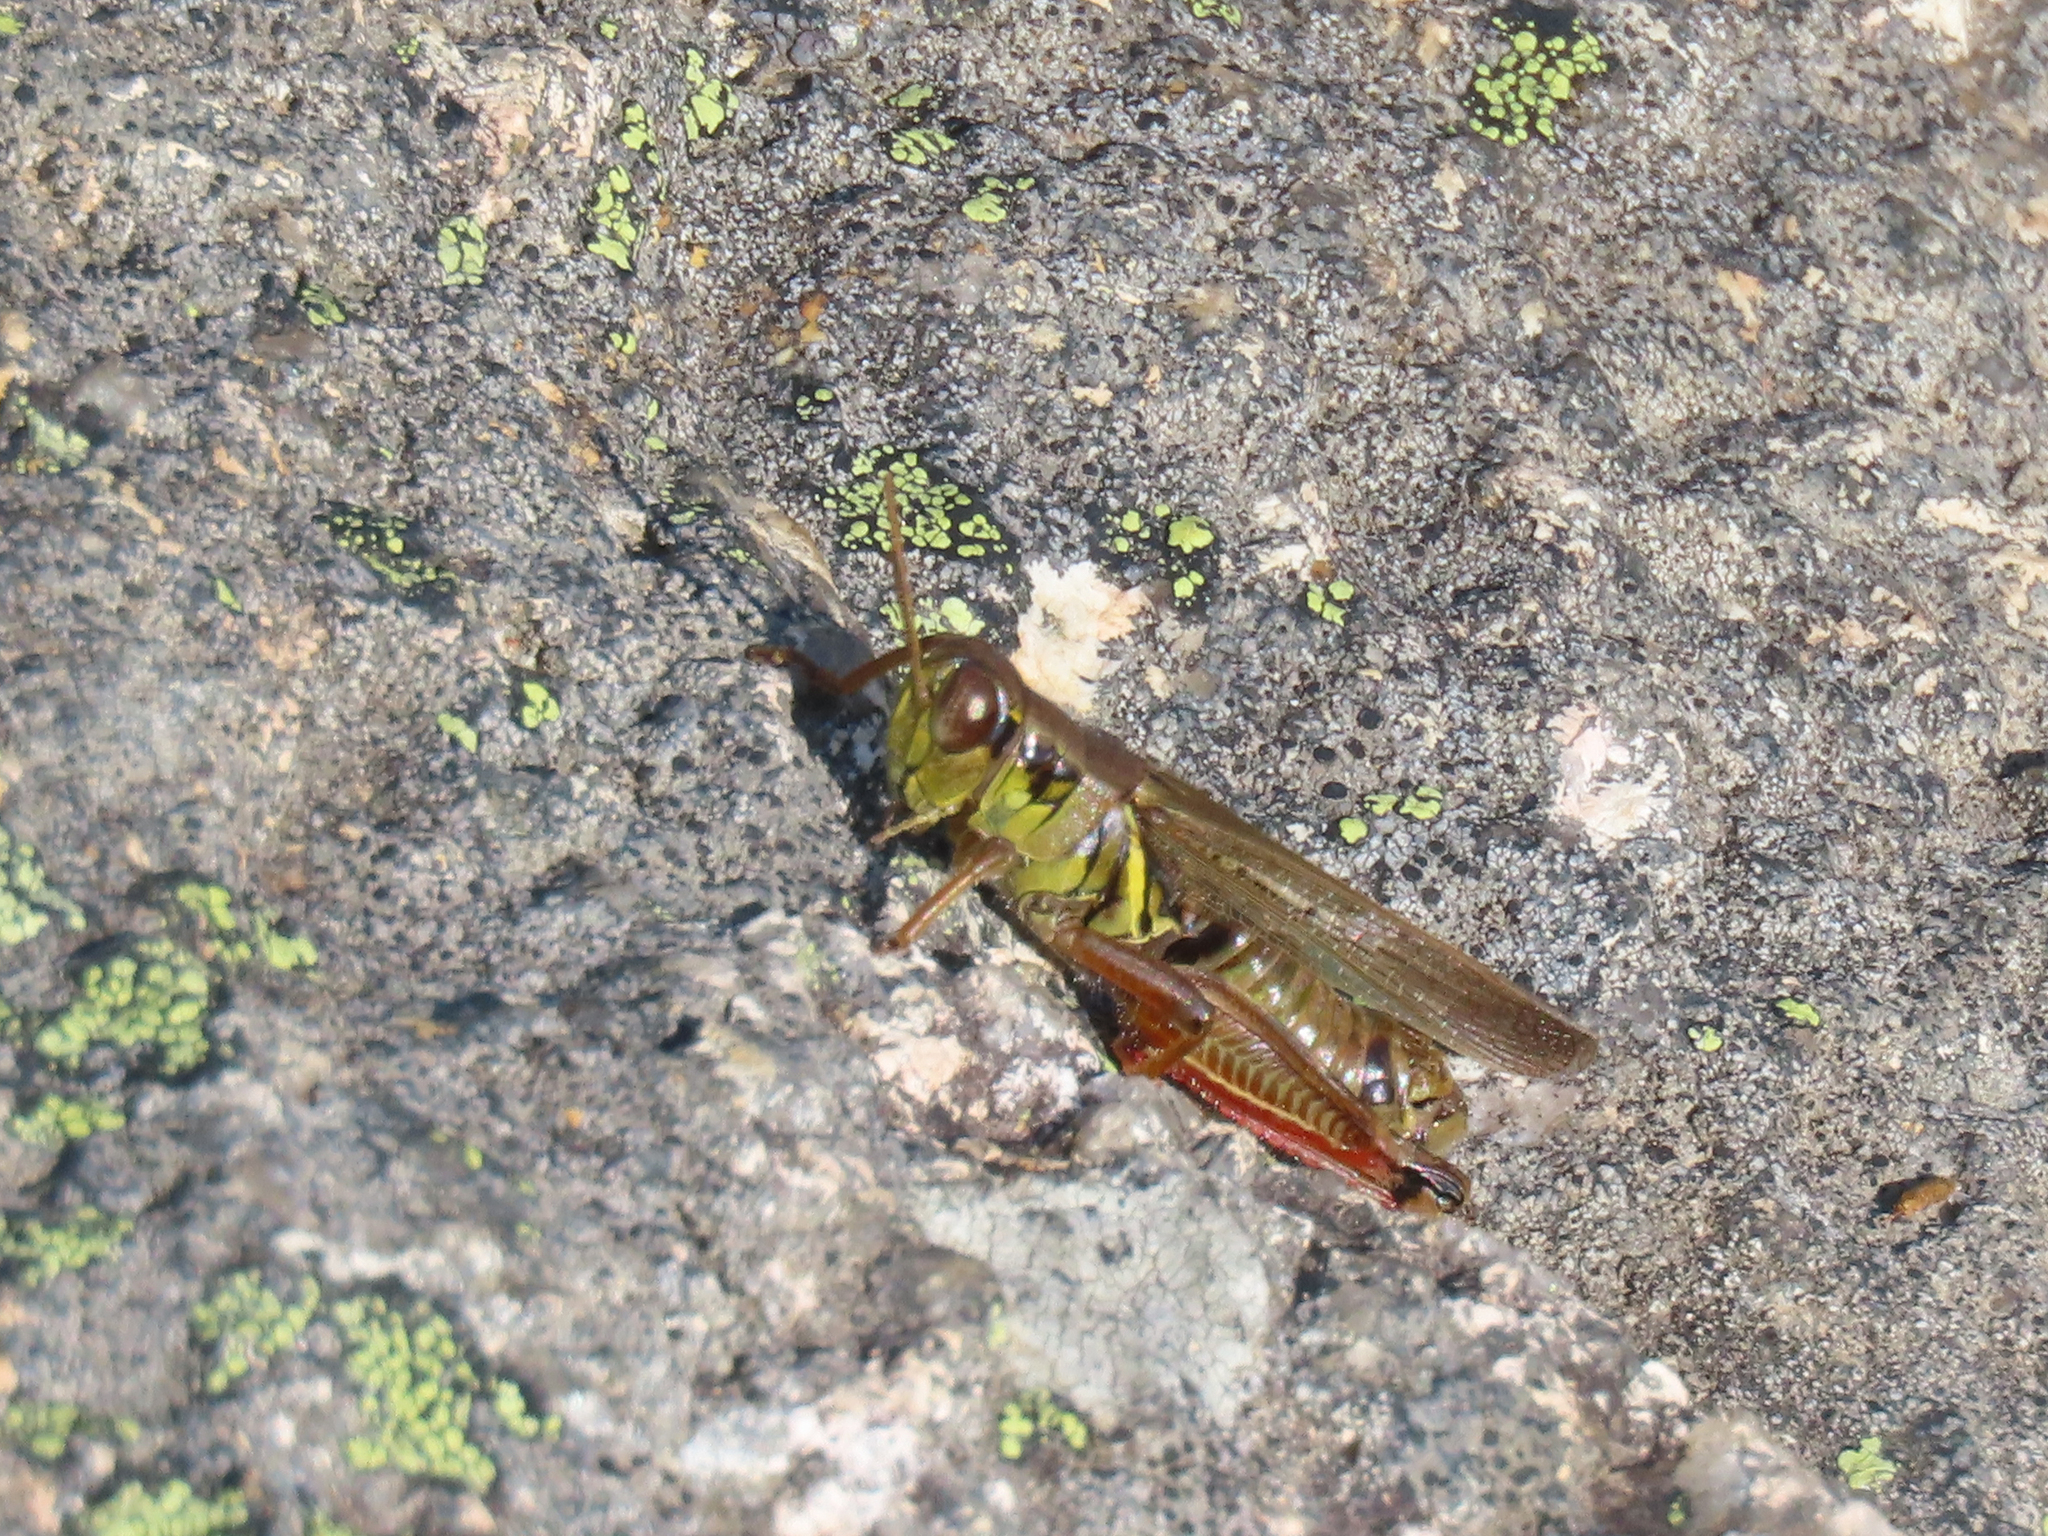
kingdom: Animalia
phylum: Arthropoda
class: Insecta
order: Orthoptera
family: Acrididae
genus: Melanoplus
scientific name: Melanoplus femurrubrum
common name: Red-legged grasshopper
